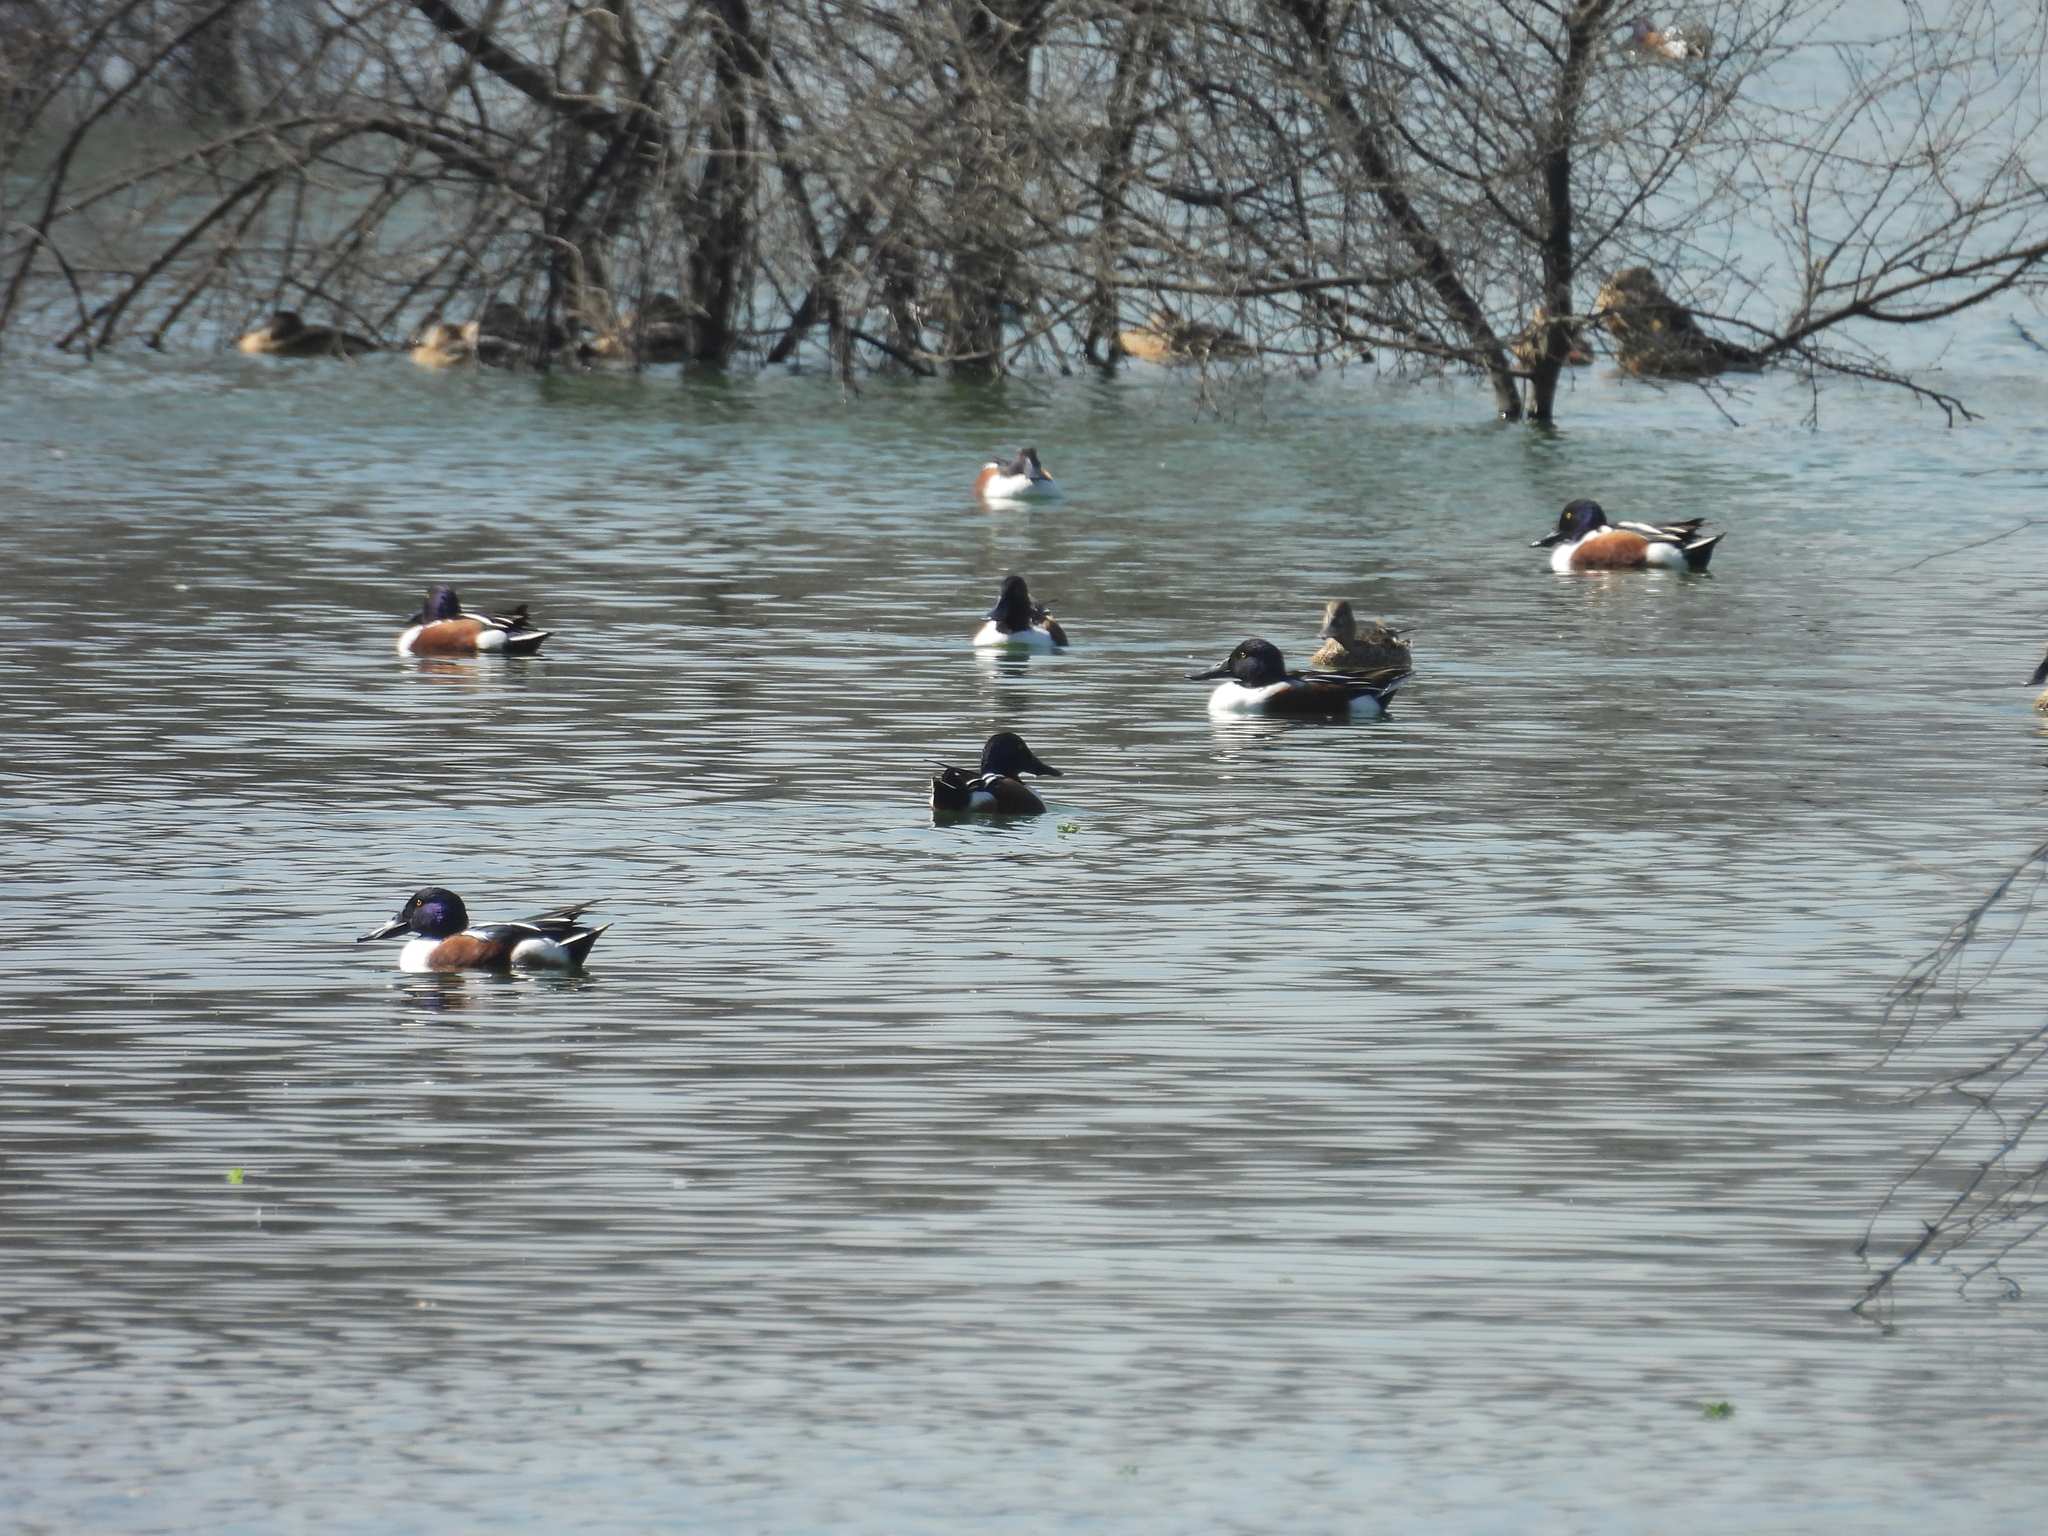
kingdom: Animalia
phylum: Chordata
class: Aves
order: Anseriformes
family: Anatidae
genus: Spatula
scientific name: Spatula clypeata
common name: Northern shoveler
